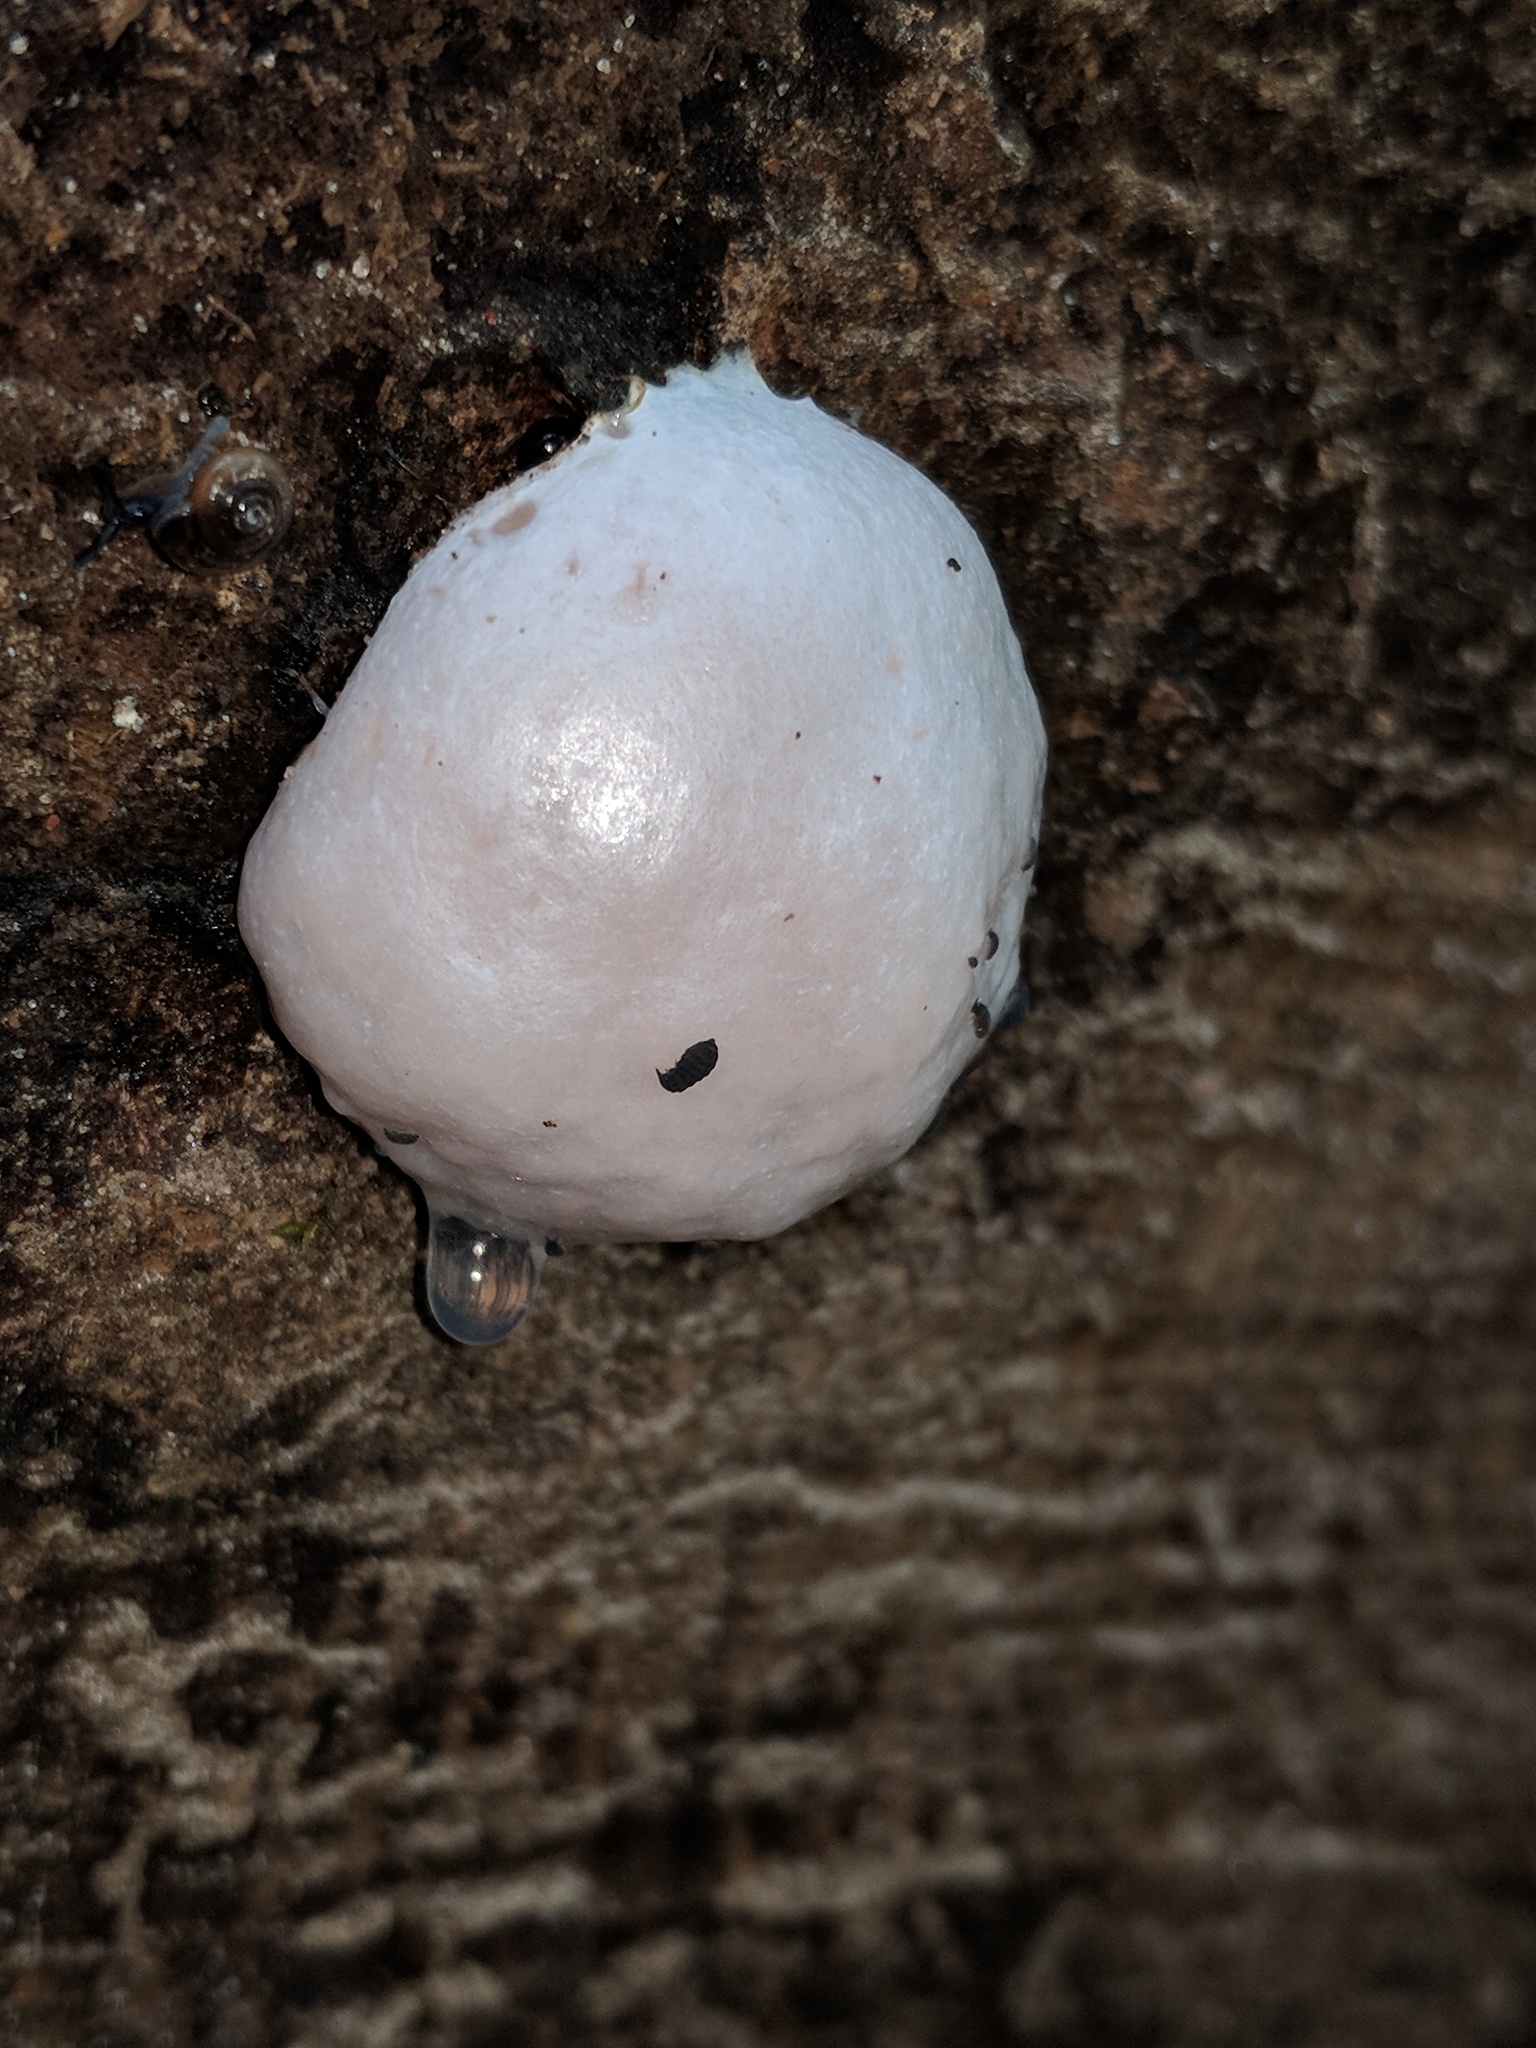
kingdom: Protozoa
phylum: Mycetozoa
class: Myxomycetes
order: Cribrariales
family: Tubiferaceae
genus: Reticularia
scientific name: Reticularia lycoperdon
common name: False puffball
